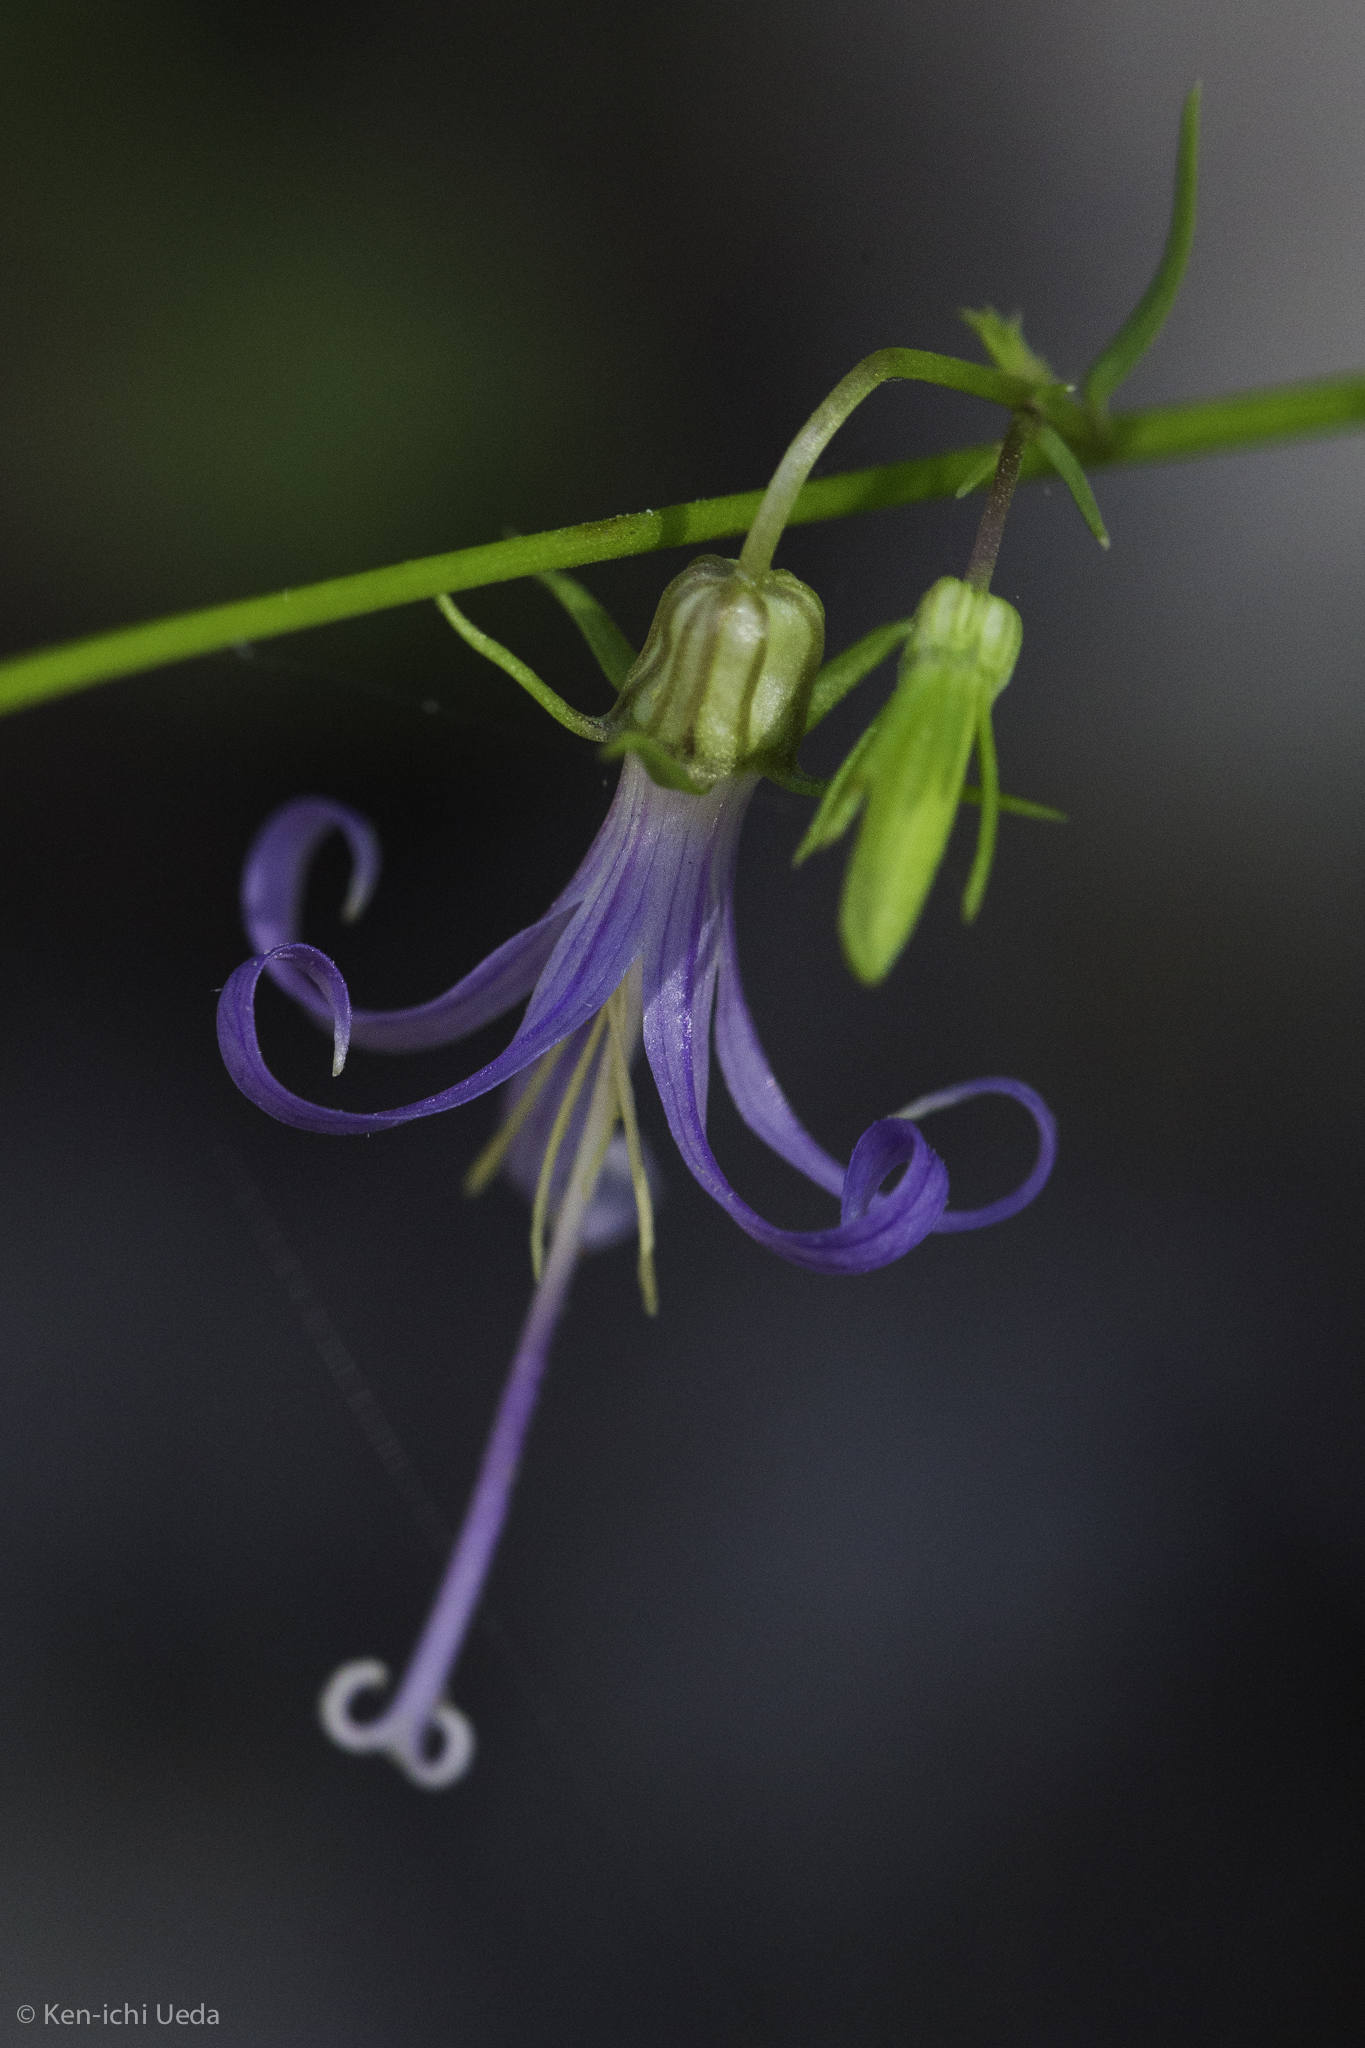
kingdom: Plantae
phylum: Tracheophyta
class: Magnoliopsida
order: Asterales
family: Campanulaceae
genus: Smithiastrum
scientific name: Smithiastrum prenanthoides
